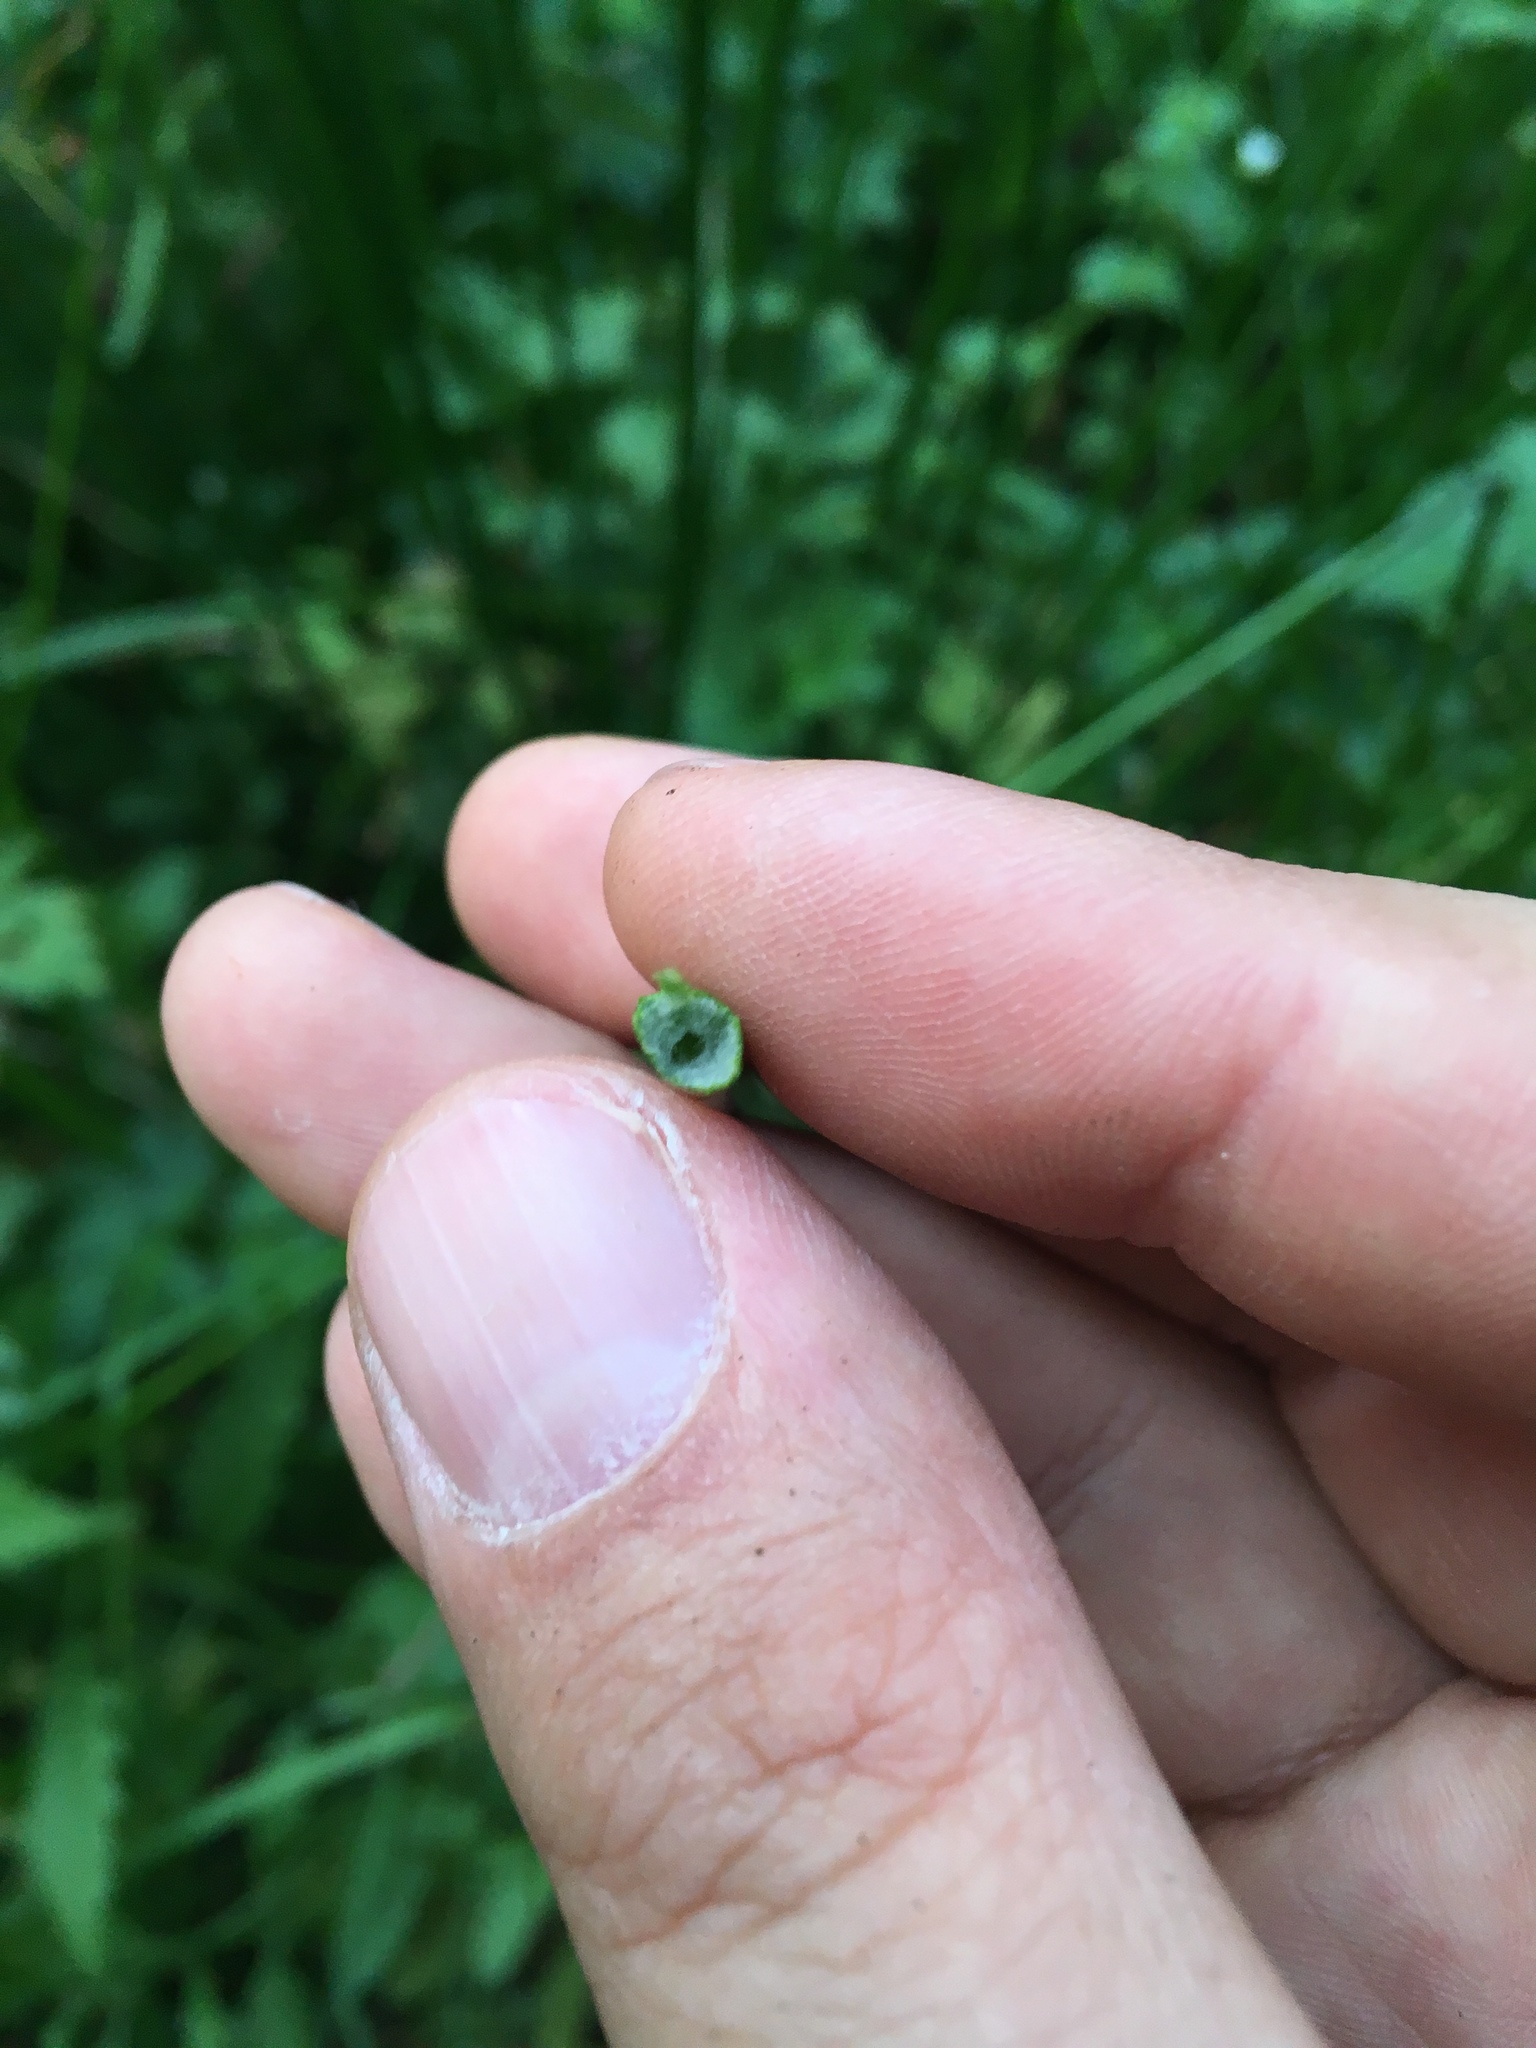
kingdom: Plantae
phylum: Tracheophyta
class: Liliopsida
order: Poales
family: Juncaceae
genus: Juncus
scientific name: Juncus effusus
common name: Soft rush
